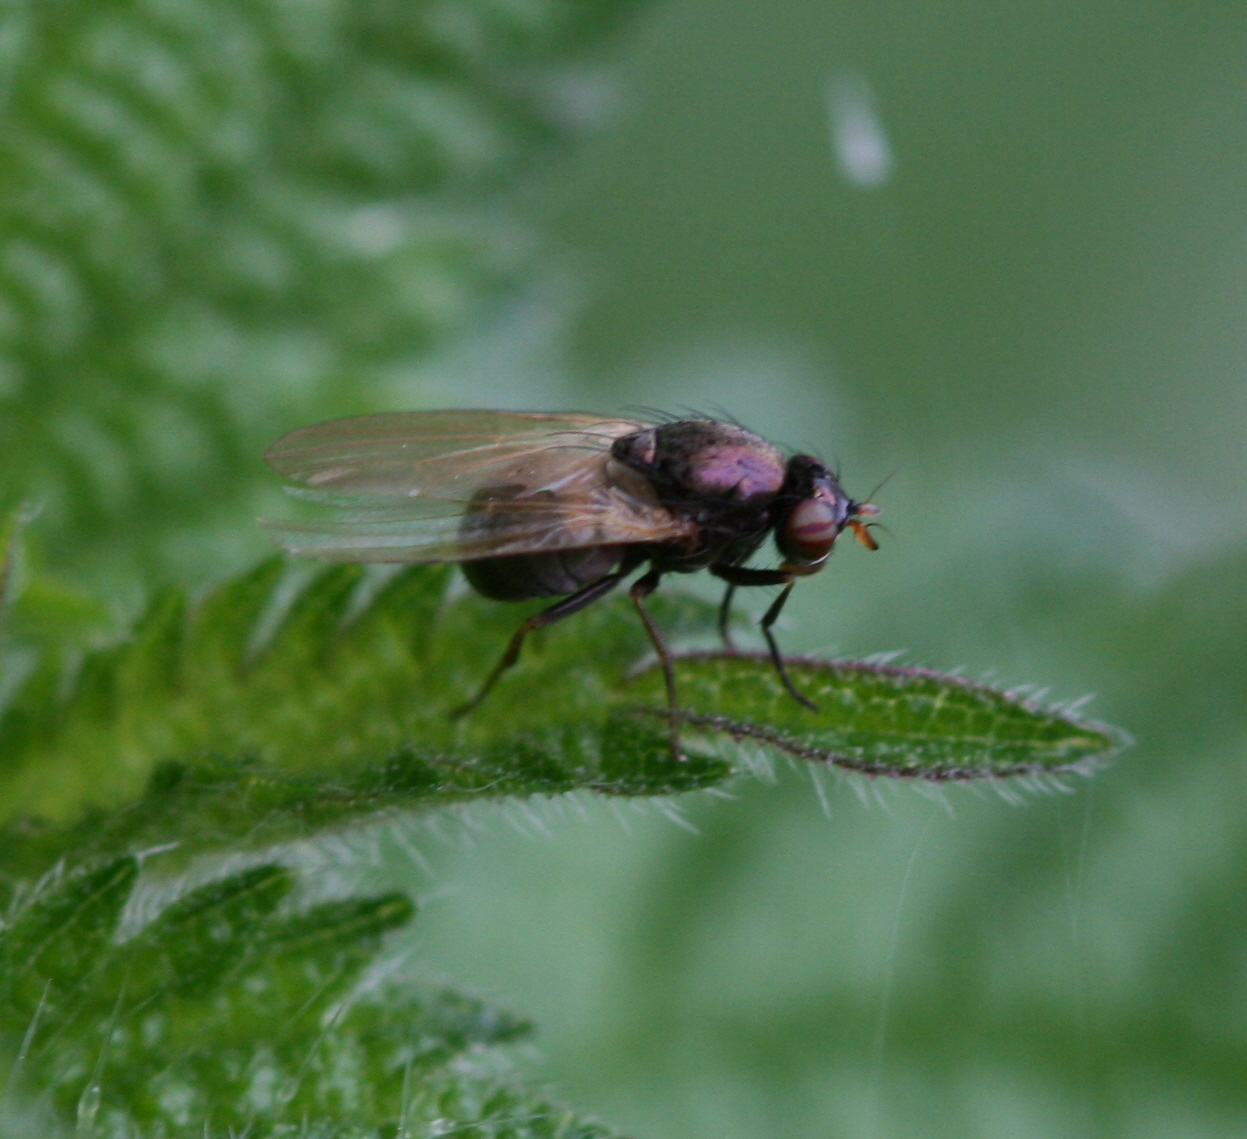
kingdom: Animalia
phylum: Arthropoda
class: Insecta
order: Diptera
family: Lauxaniidae
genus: Calliopum
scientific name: Calliopum
